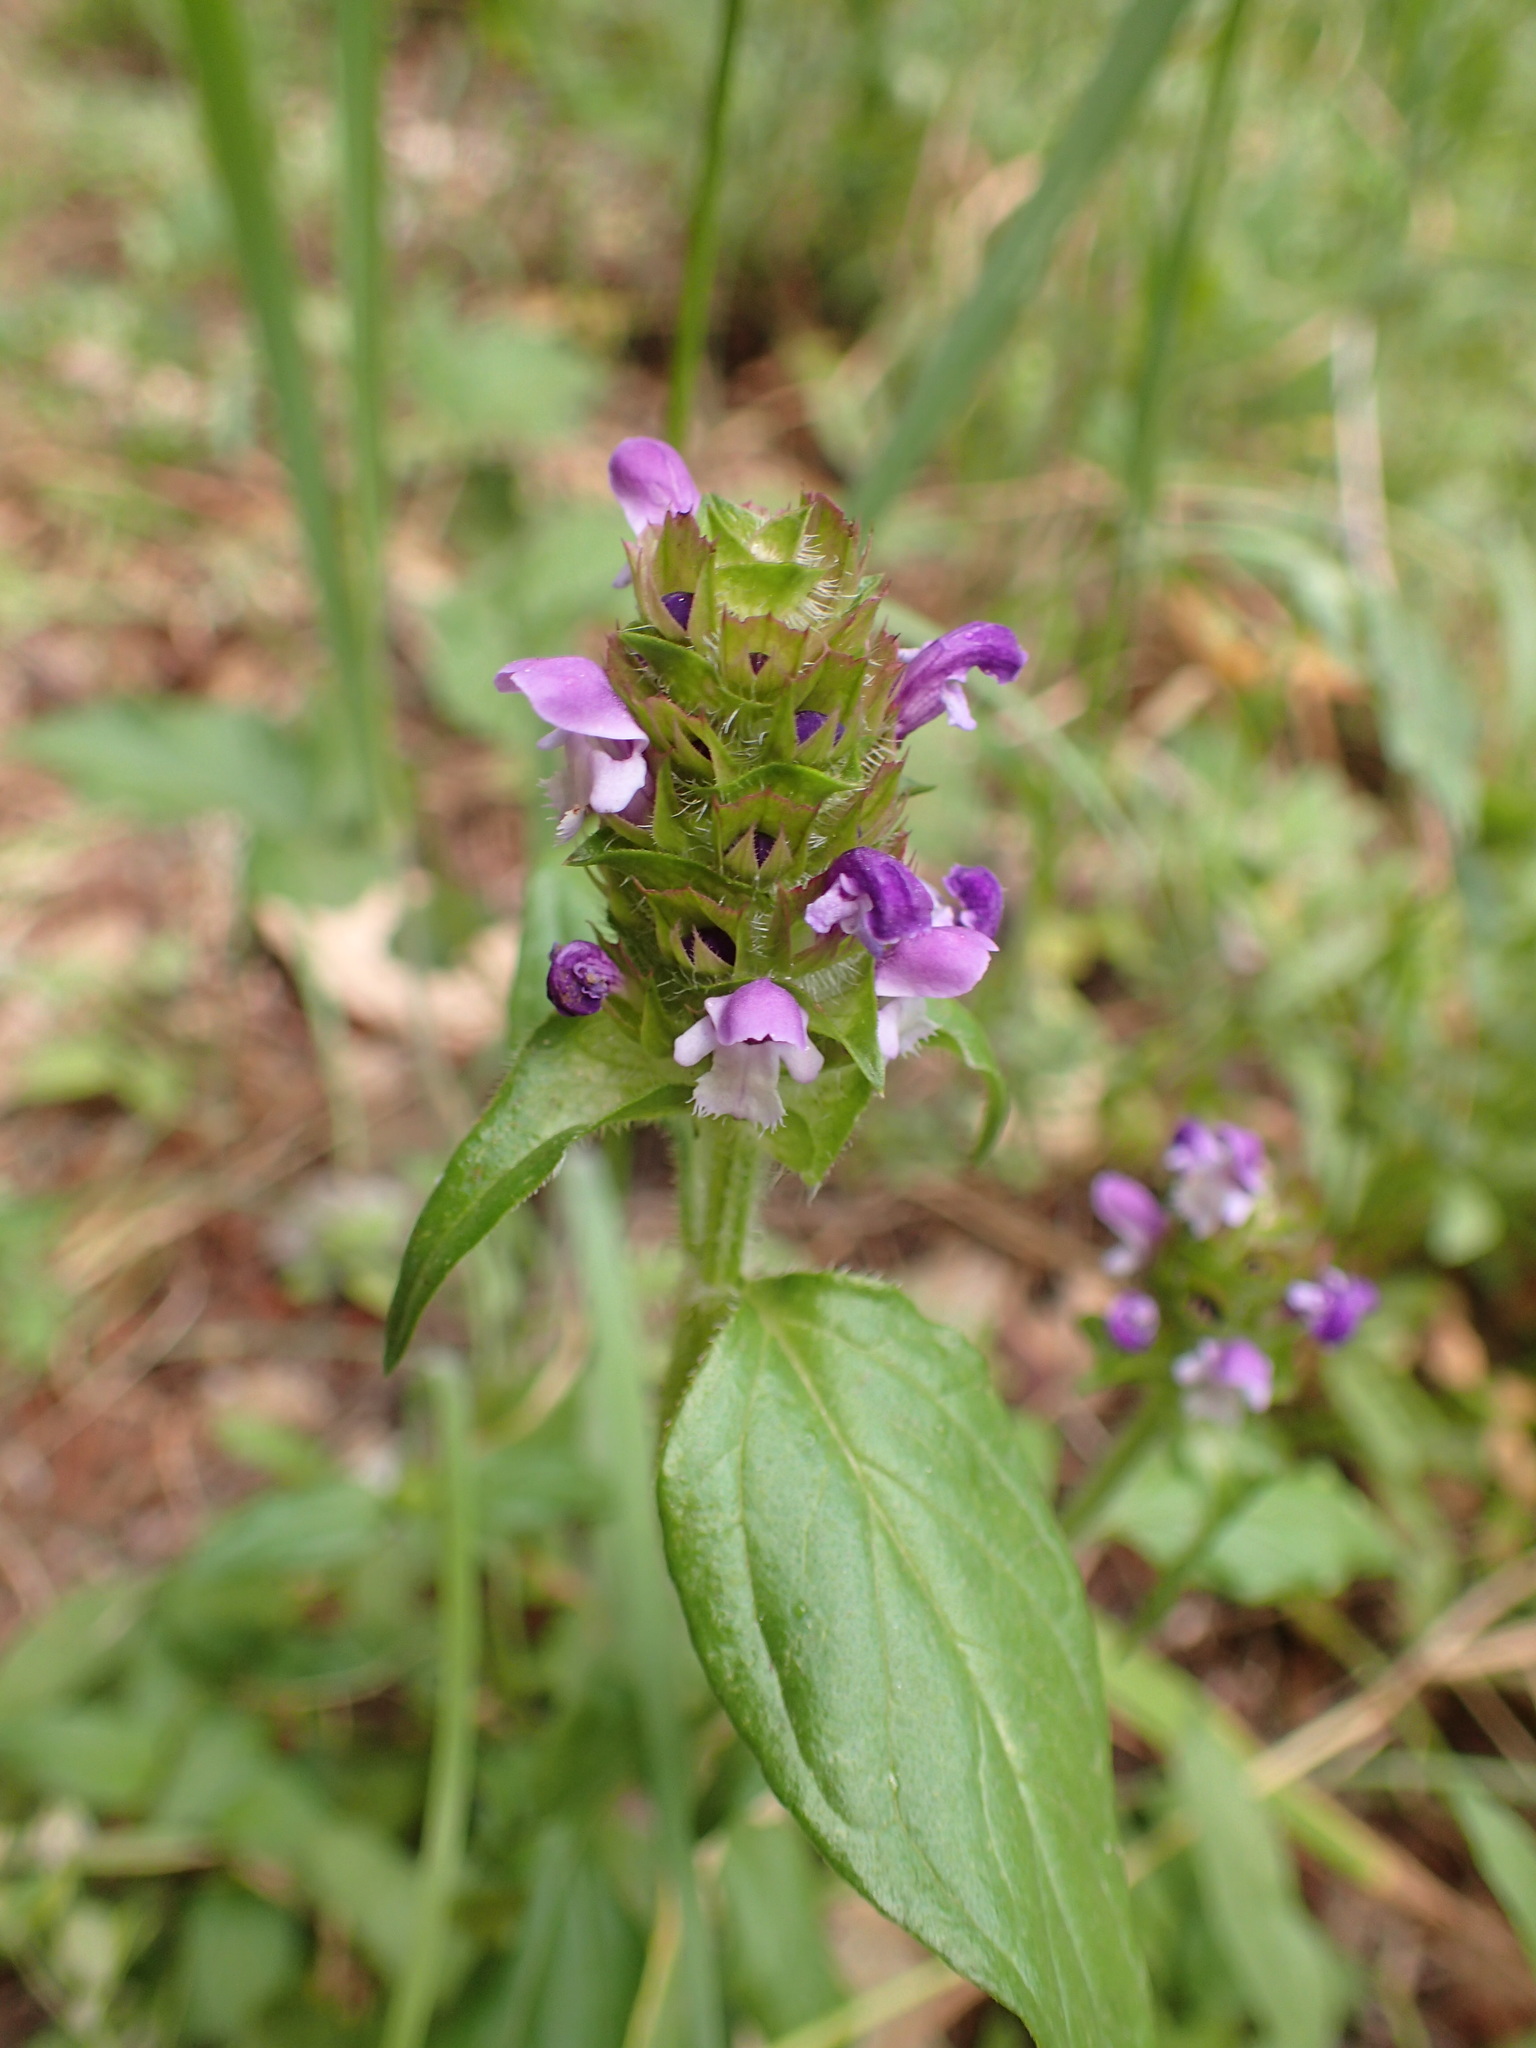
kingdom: Plantae
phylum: Tracheophyta
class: Magnoliopsida
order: Lamiales
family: Lamiaceae
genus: Prunella
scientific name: Prunella vulgaris
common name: Heal-all
